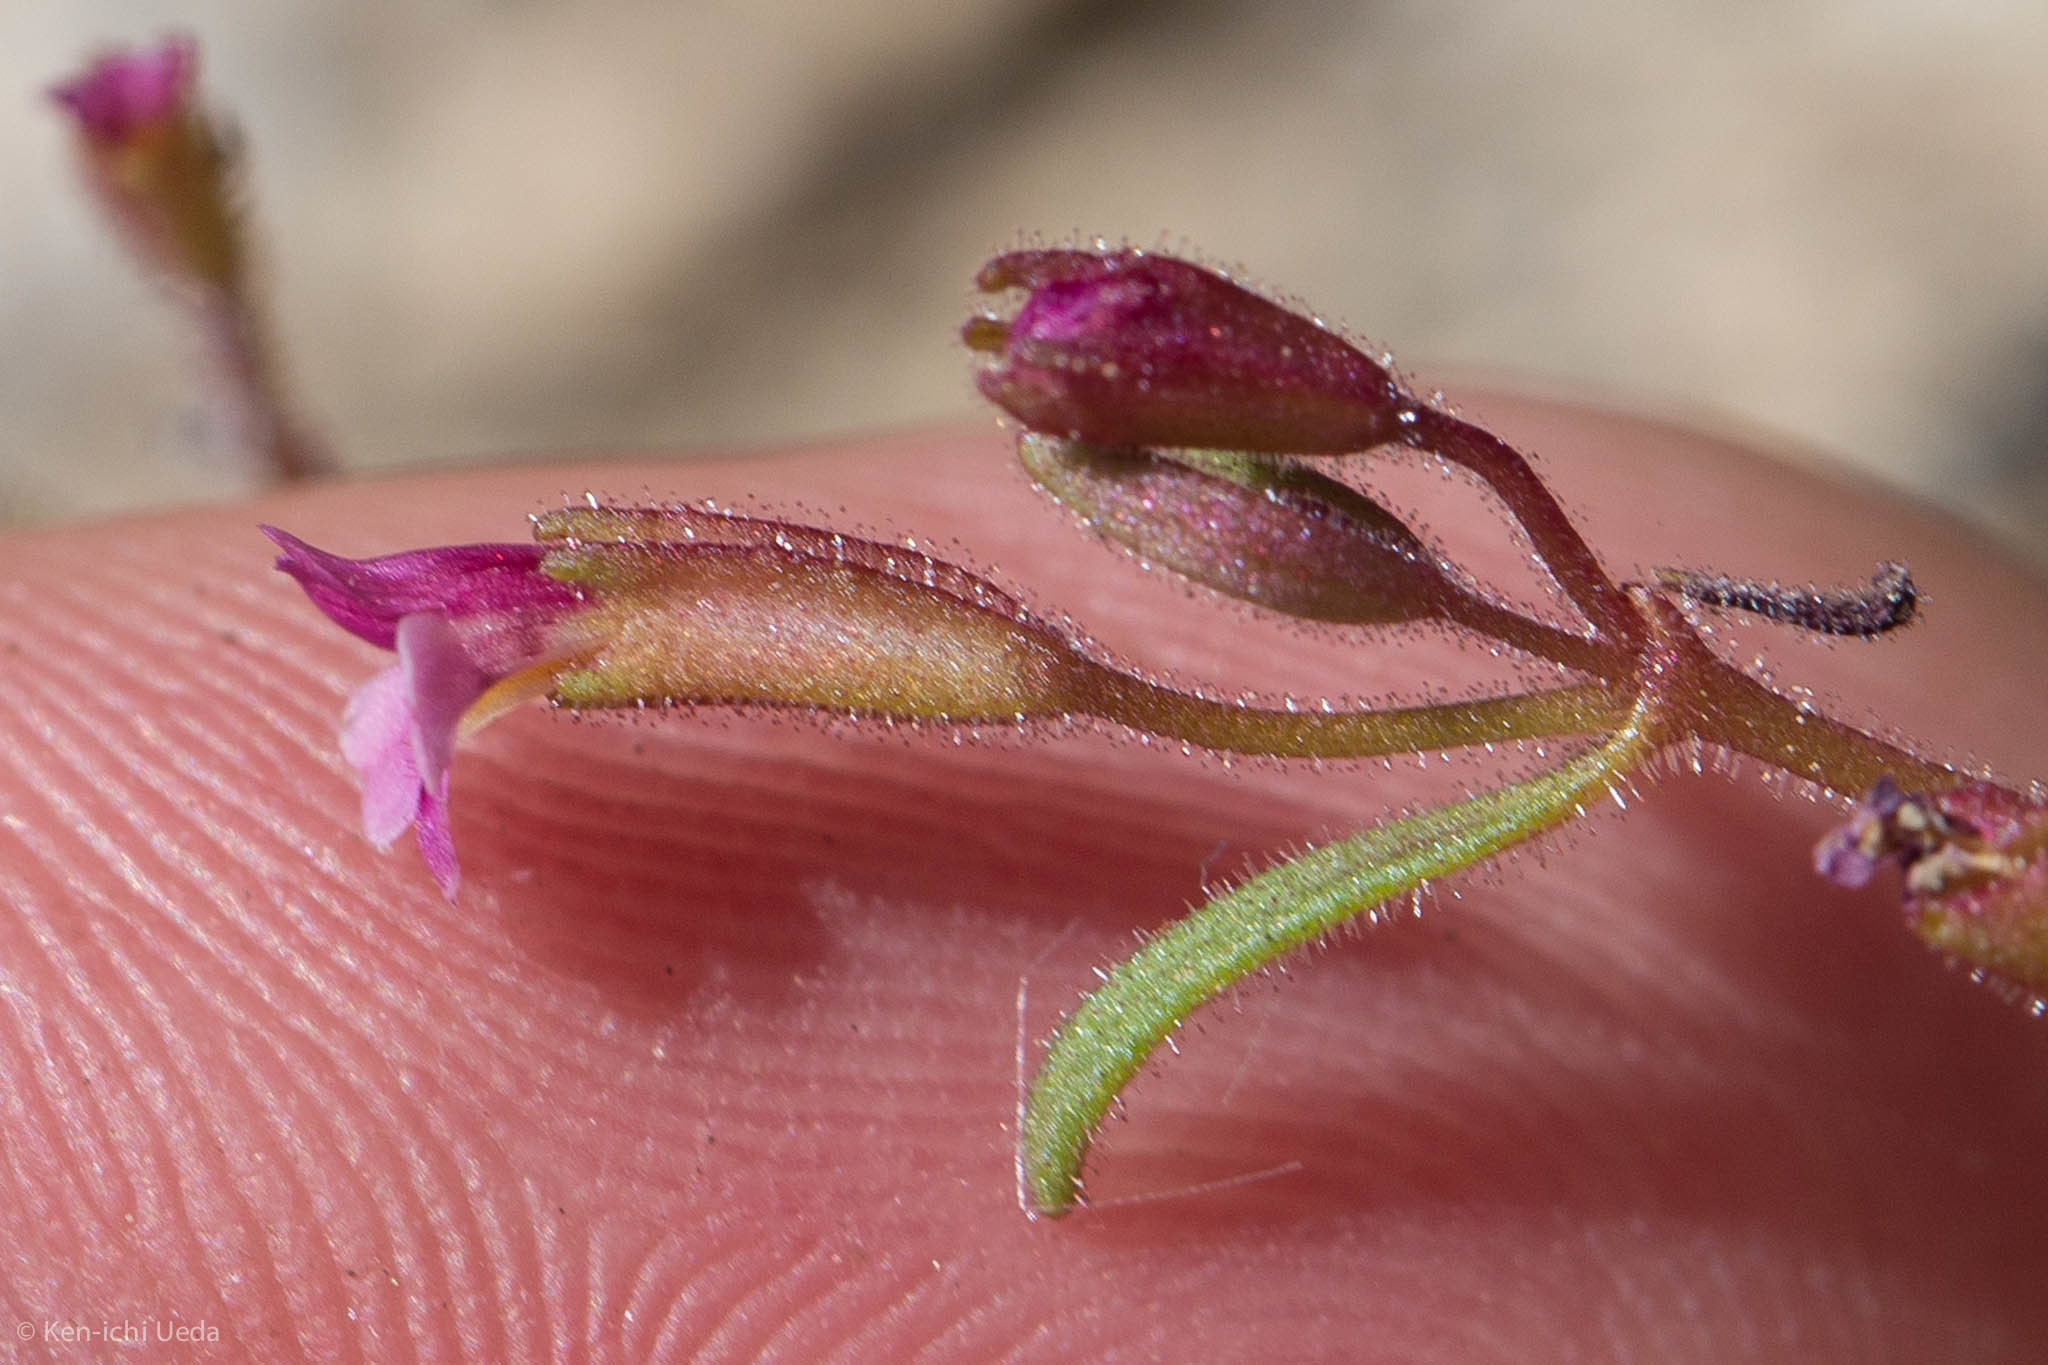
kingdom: Plantae
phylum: Tracheophyta
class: Magnoliopsida
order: Lamiales
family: Phrymaceae
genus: Erythranthe
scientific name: Erythranthe breweri
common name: Brewer's monkeyflower
